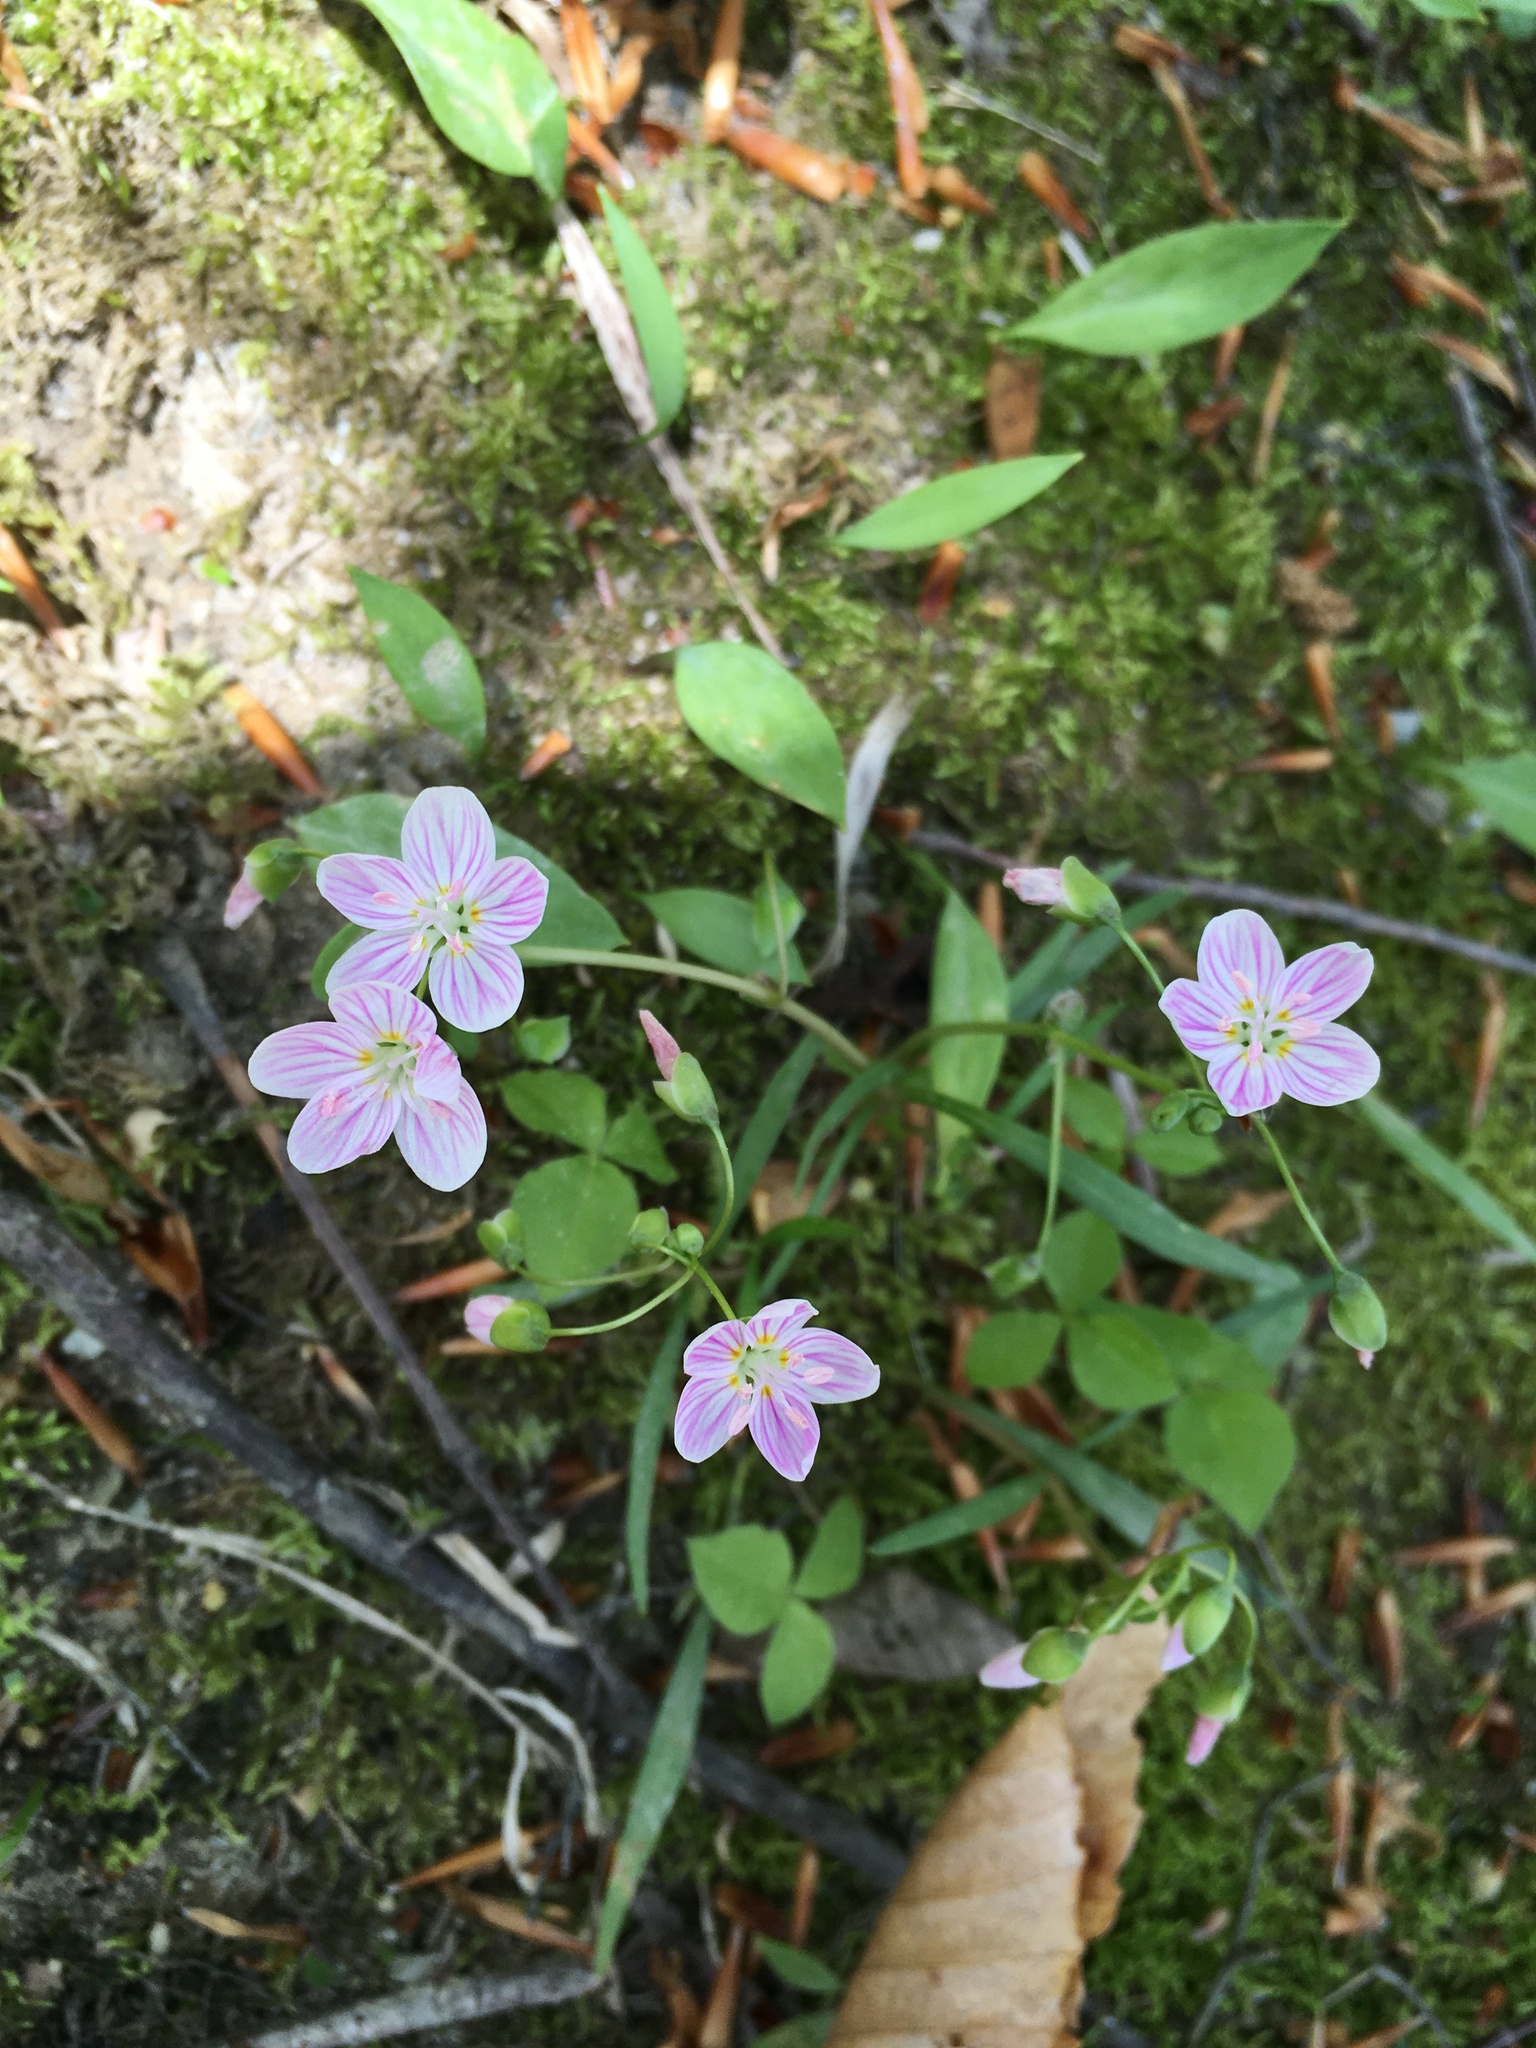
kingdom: Plantae
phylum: Tracheophyta
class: Magnoliopsida
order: Caryophyllales
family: Montiaceae
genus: Claytonia
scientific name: Claytonia virginica
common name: Virginia springbeauty
